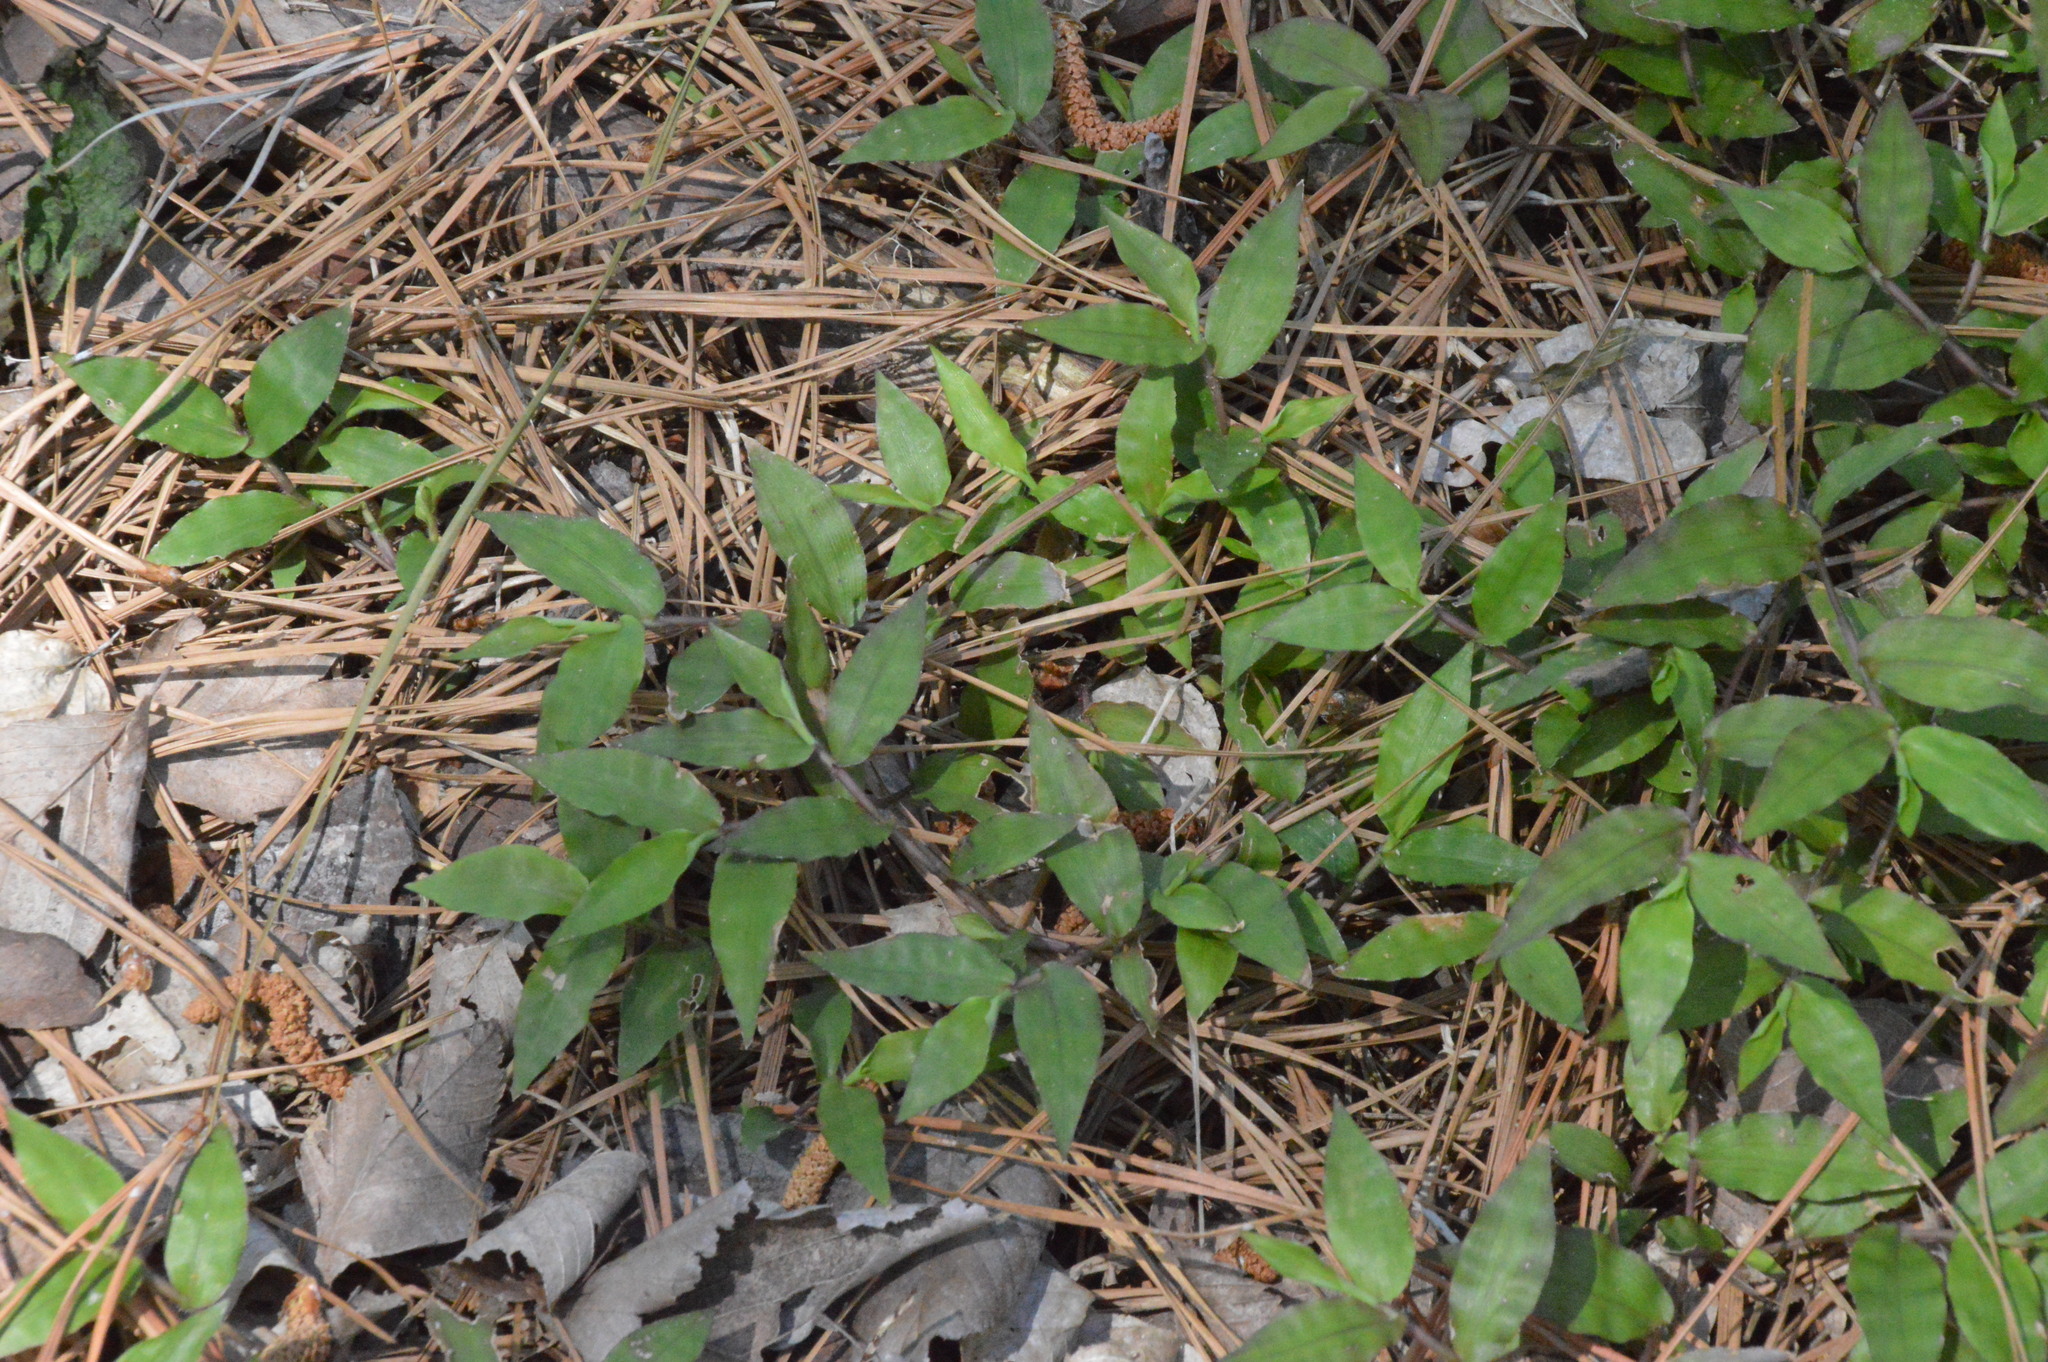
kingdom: Plantae
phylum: Tracheophyta
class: Liliopsida
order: Poales
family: Poaceae
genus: Oplismenus
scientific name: Oplismenus hirtellus
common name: Basketgrass
